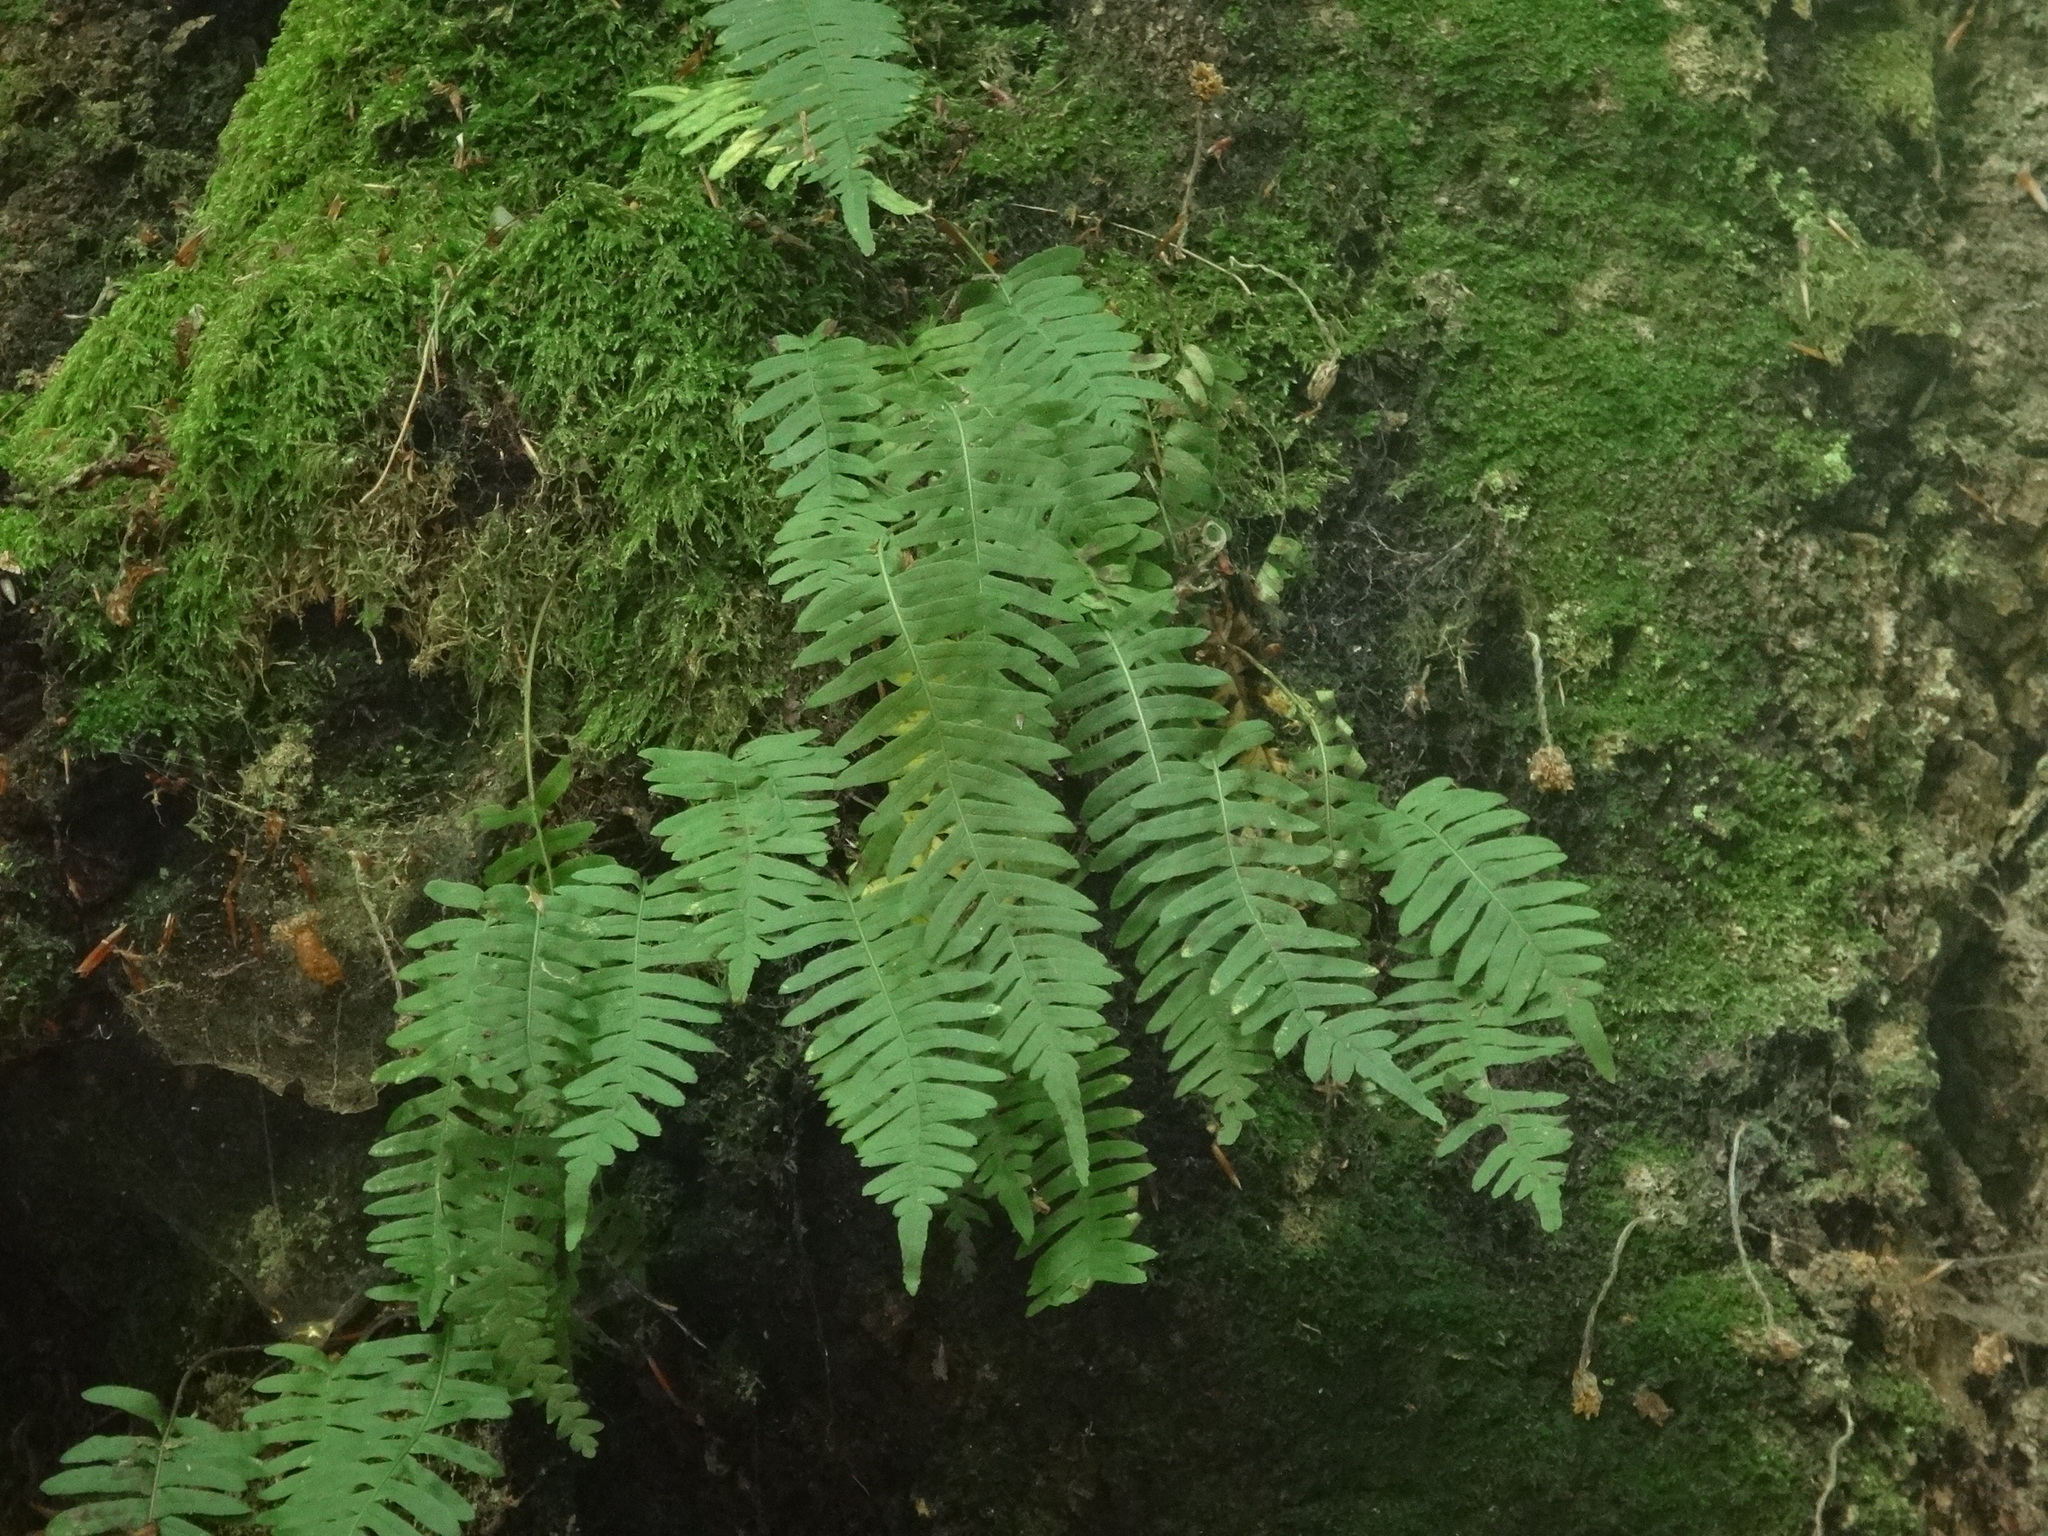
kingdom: Plantae
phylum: Tracheophyta
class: Polypodiopsida
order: Polypodiales
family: Polypodiaceae
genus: Polypodium
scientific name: Polypodium vulgare
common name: Common polypody
